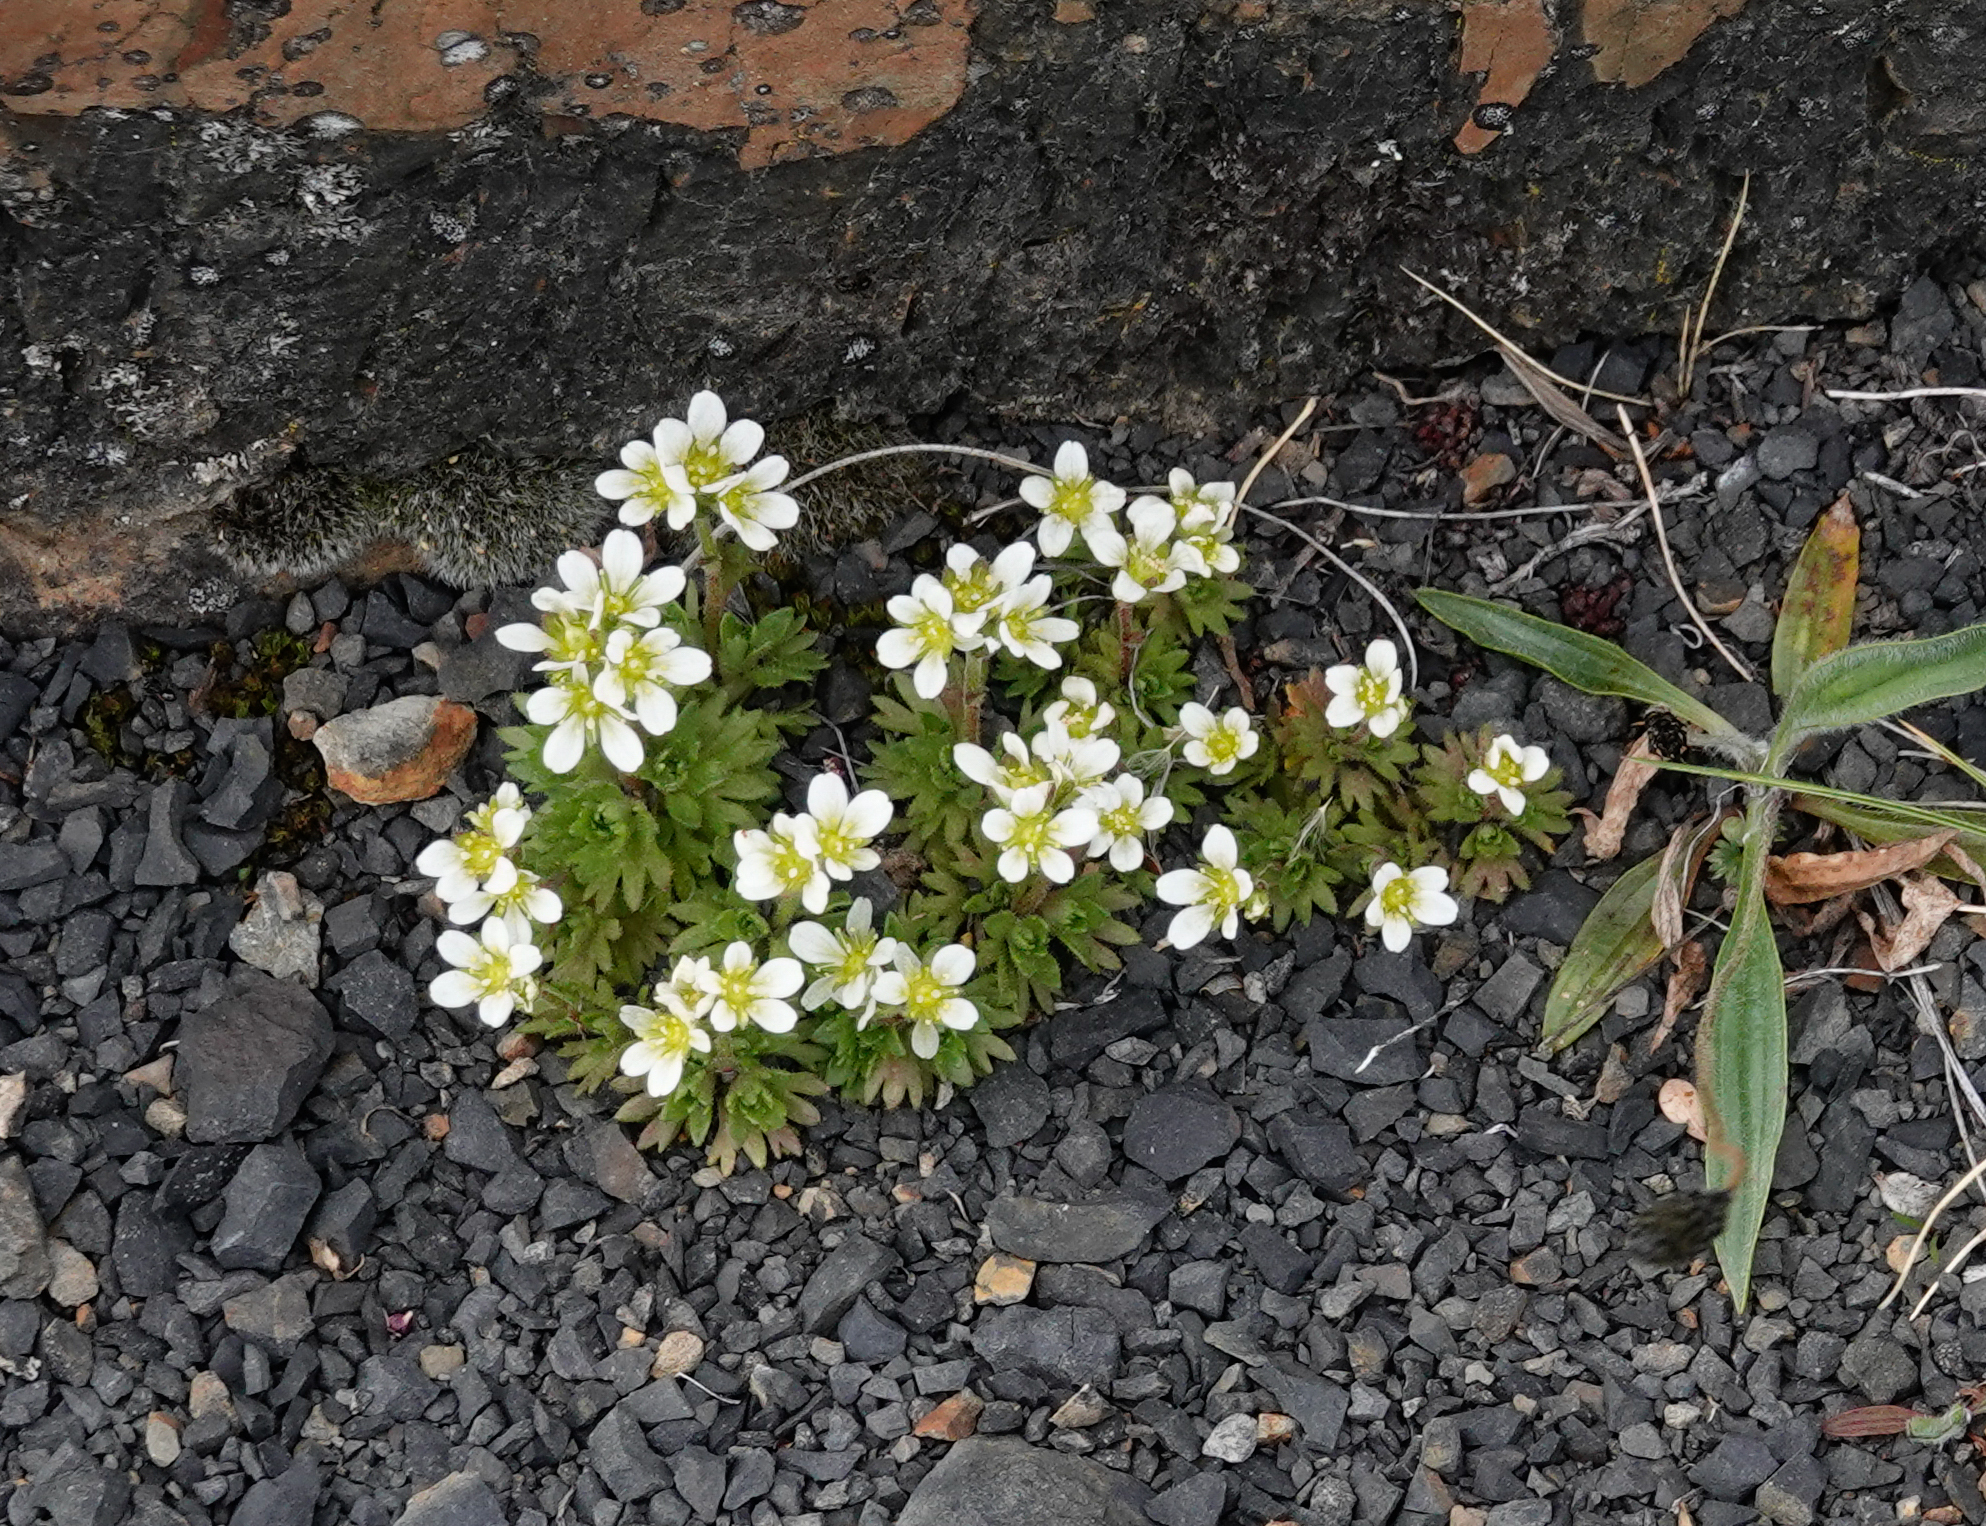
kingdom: Plantae
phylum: Tracheophyta
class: Magnoliopsida
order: Saxifragales
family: Saxifragaceae
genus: Saxifraga
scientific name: Saxifraga magellanica
